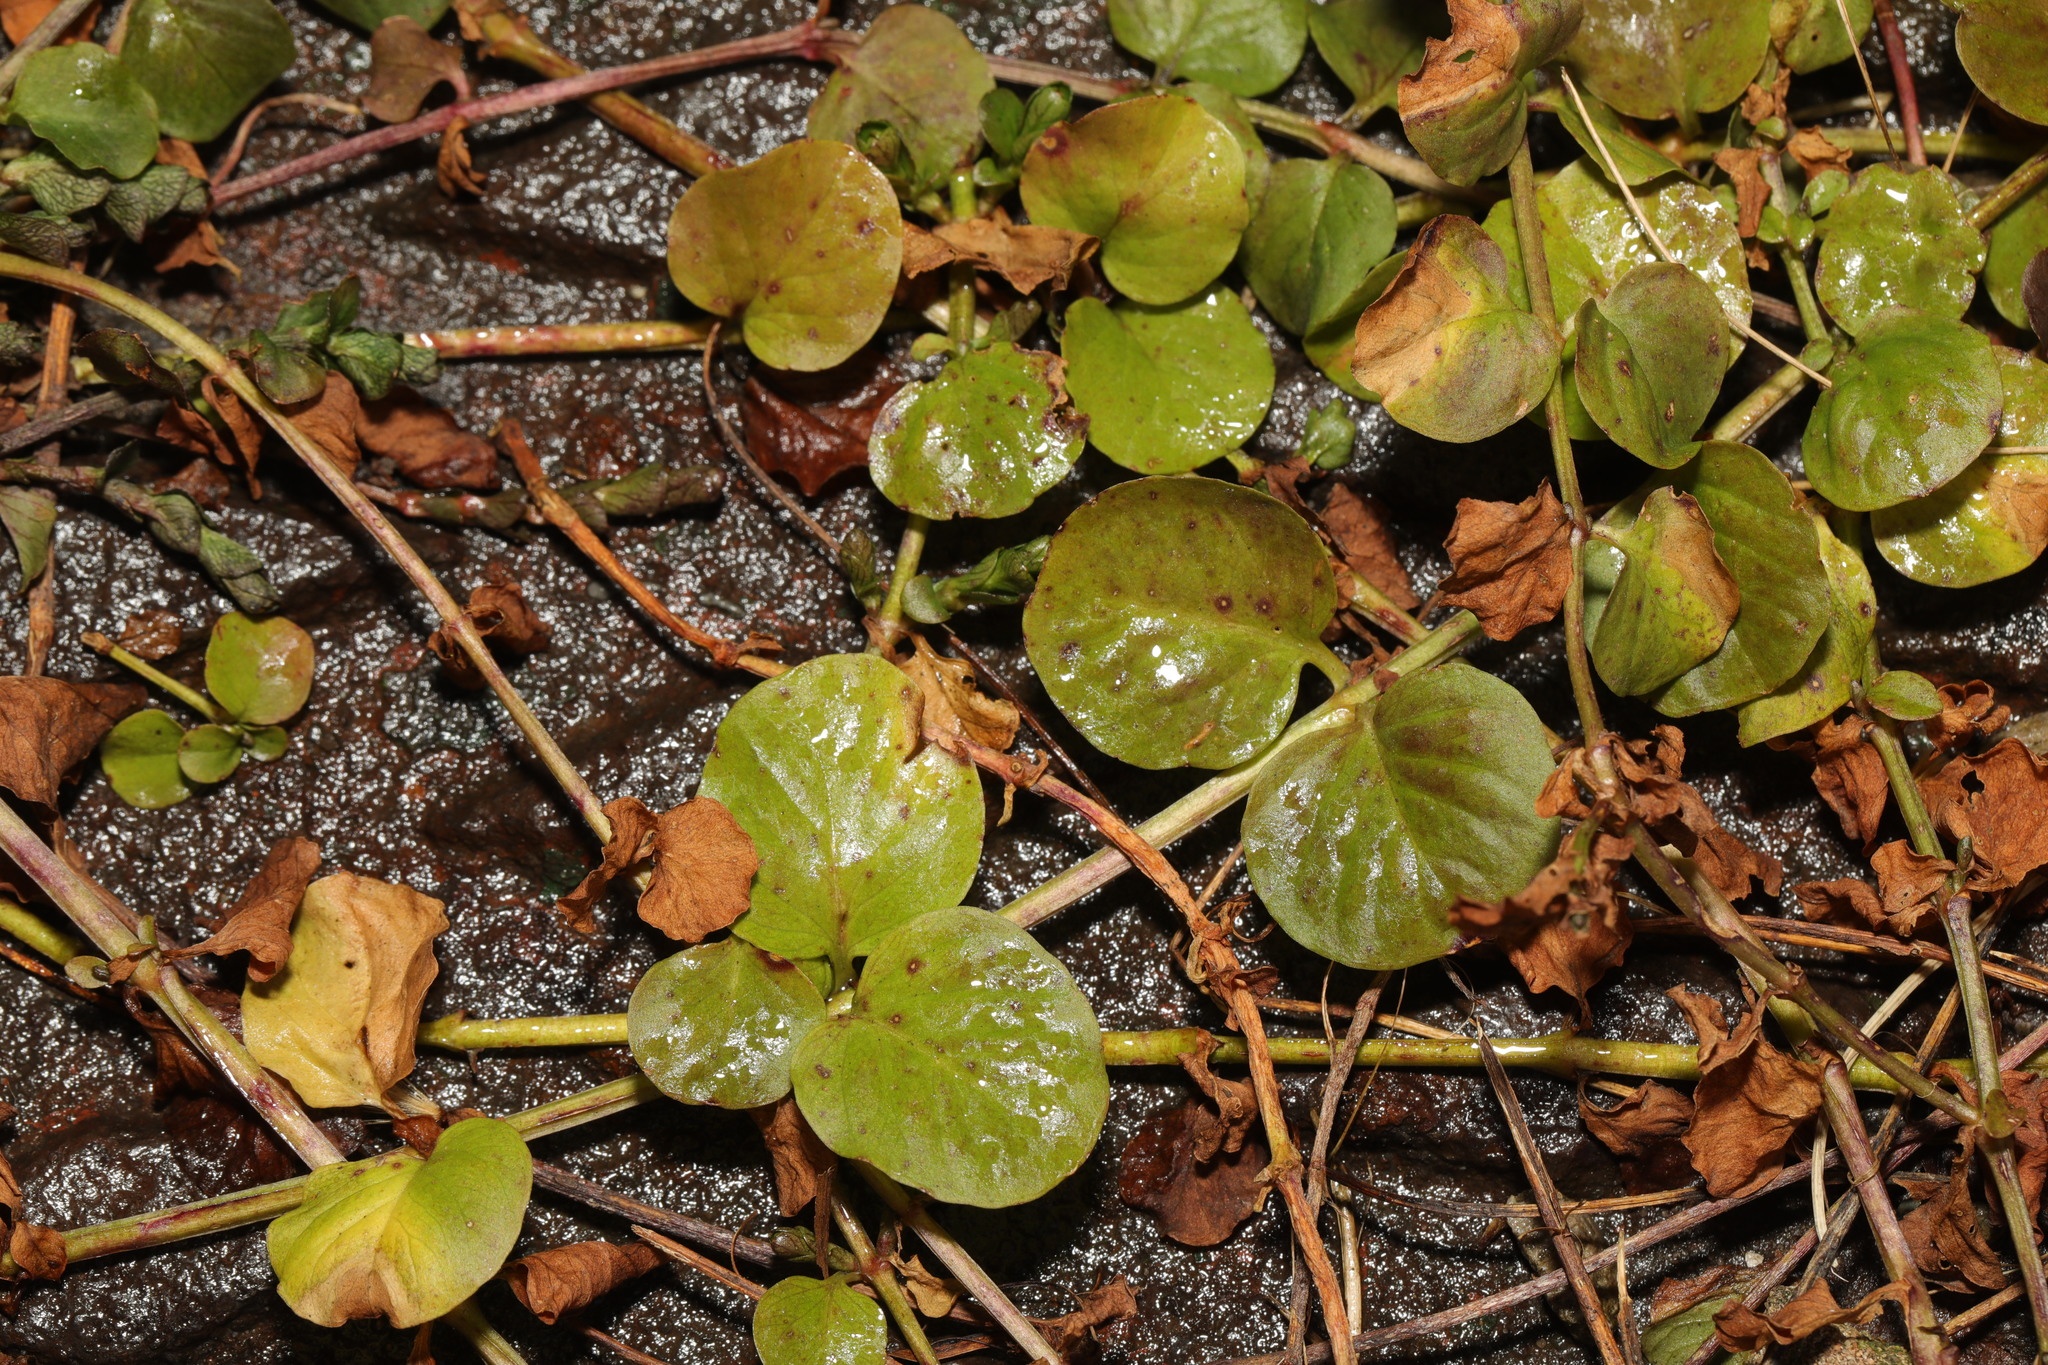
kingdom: Plantae
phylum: Tracheophyta
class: Magnoliopsida
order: Ericales
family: Primulaceae
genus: Lysimachia
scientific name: Lysimachia nummularia
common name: Moneywort
